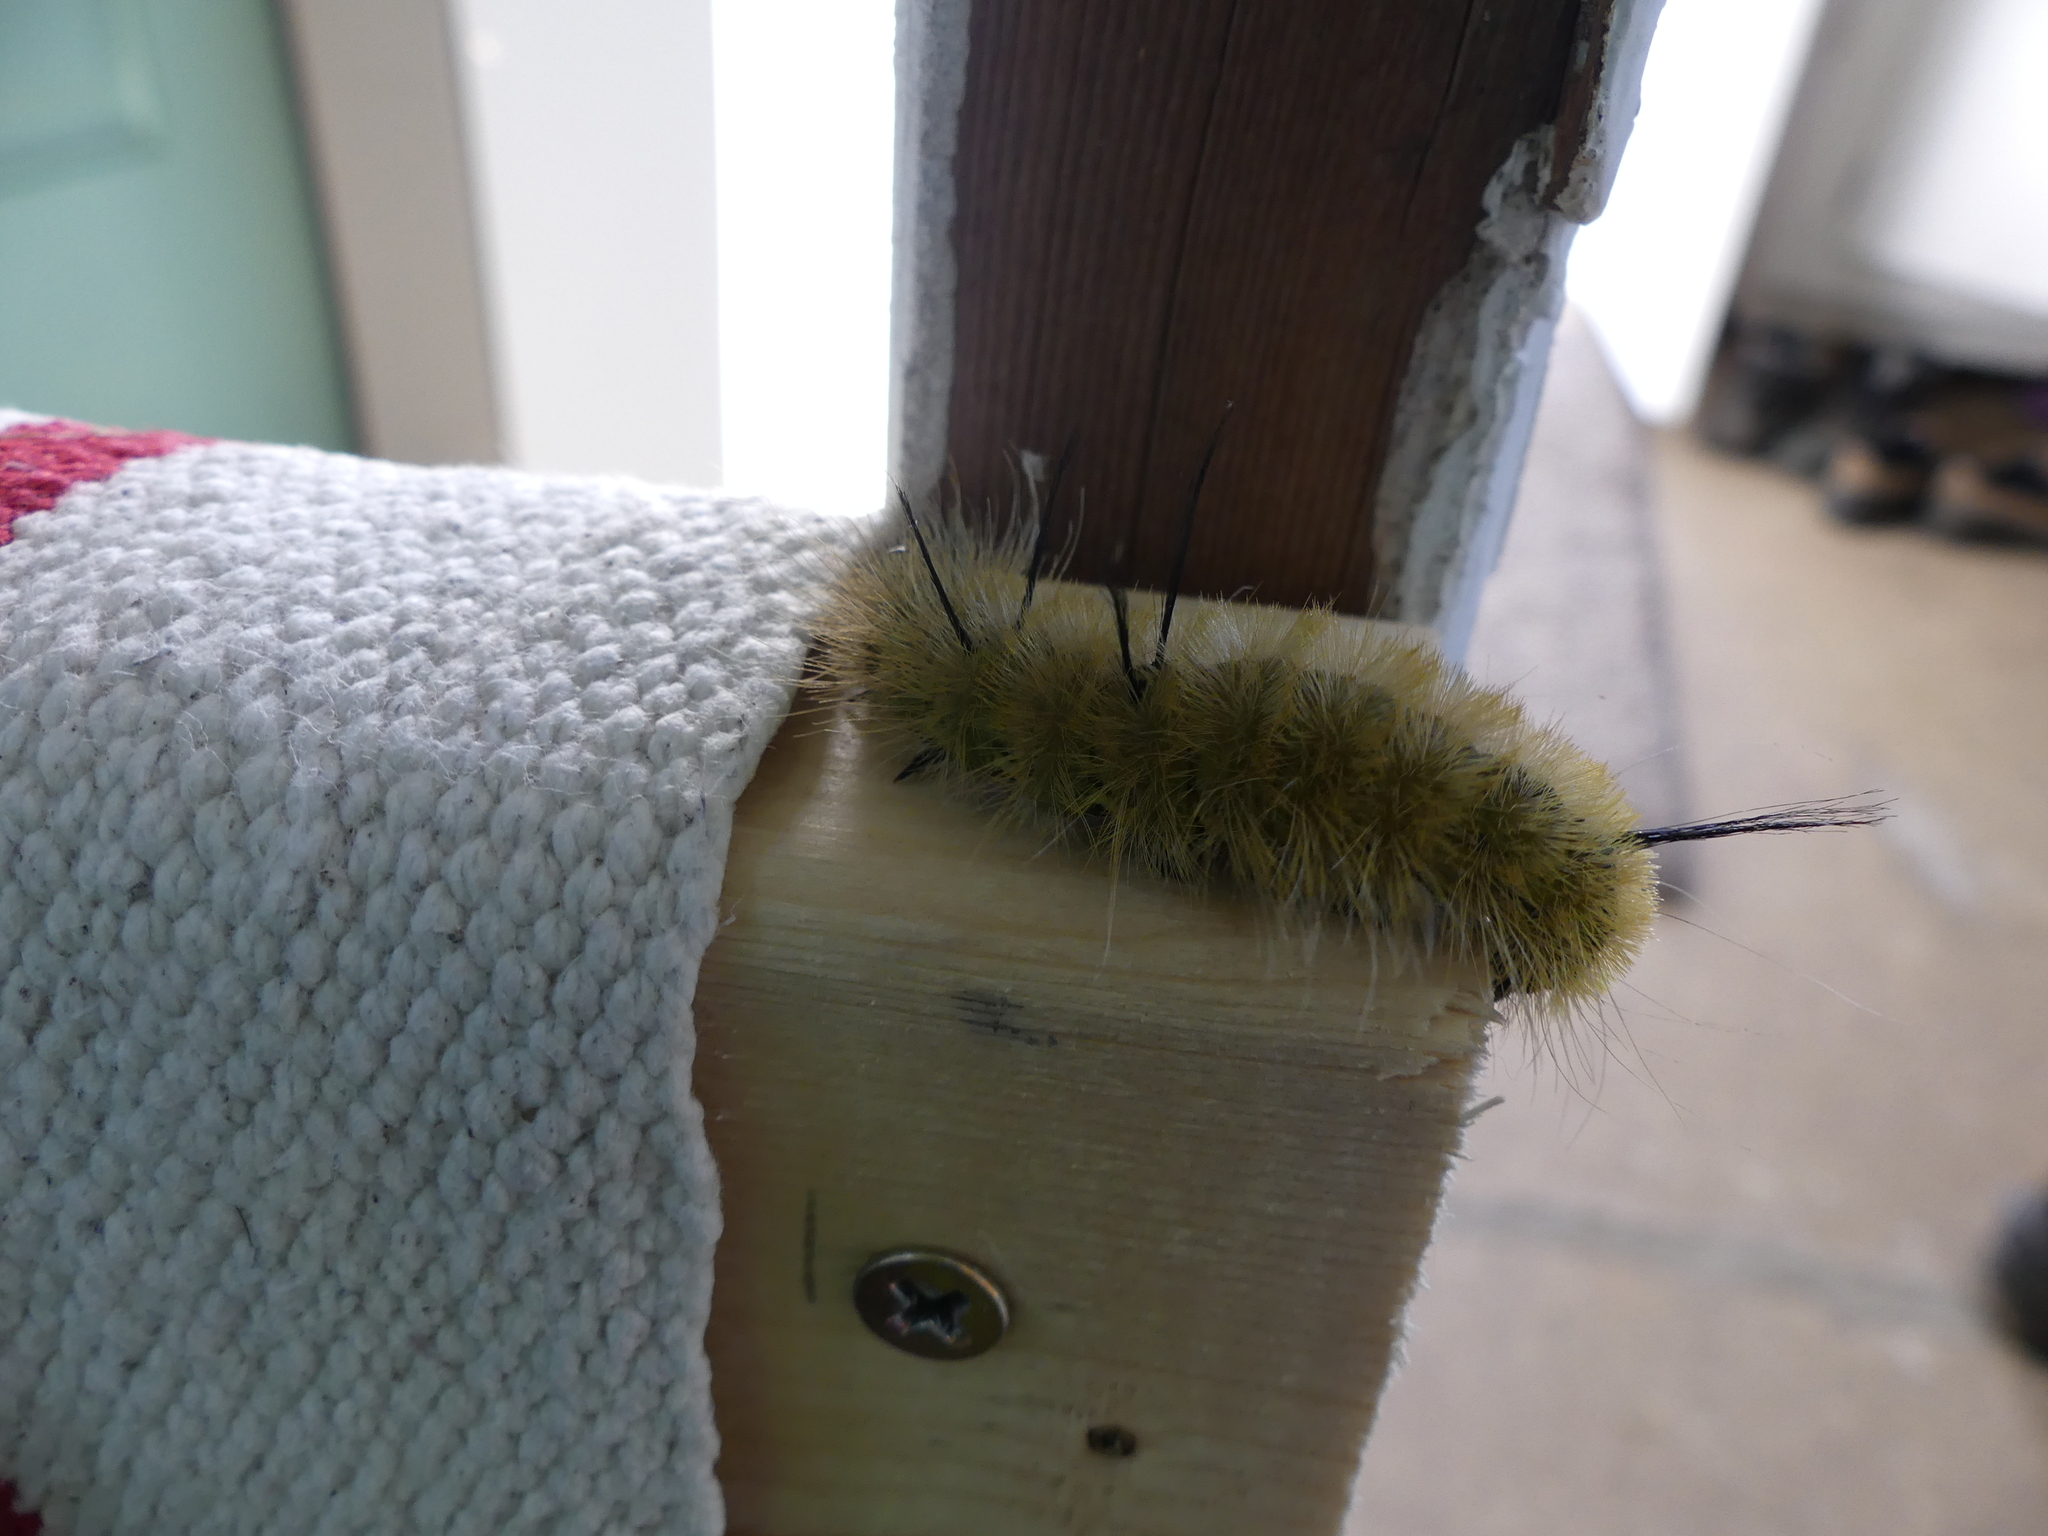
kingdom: Animalia
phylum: Arthropoda
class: Insecta
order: Lepidoptera
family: Noctuidae
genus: Acronicta
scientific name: Acronicta americana
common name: American dagger
